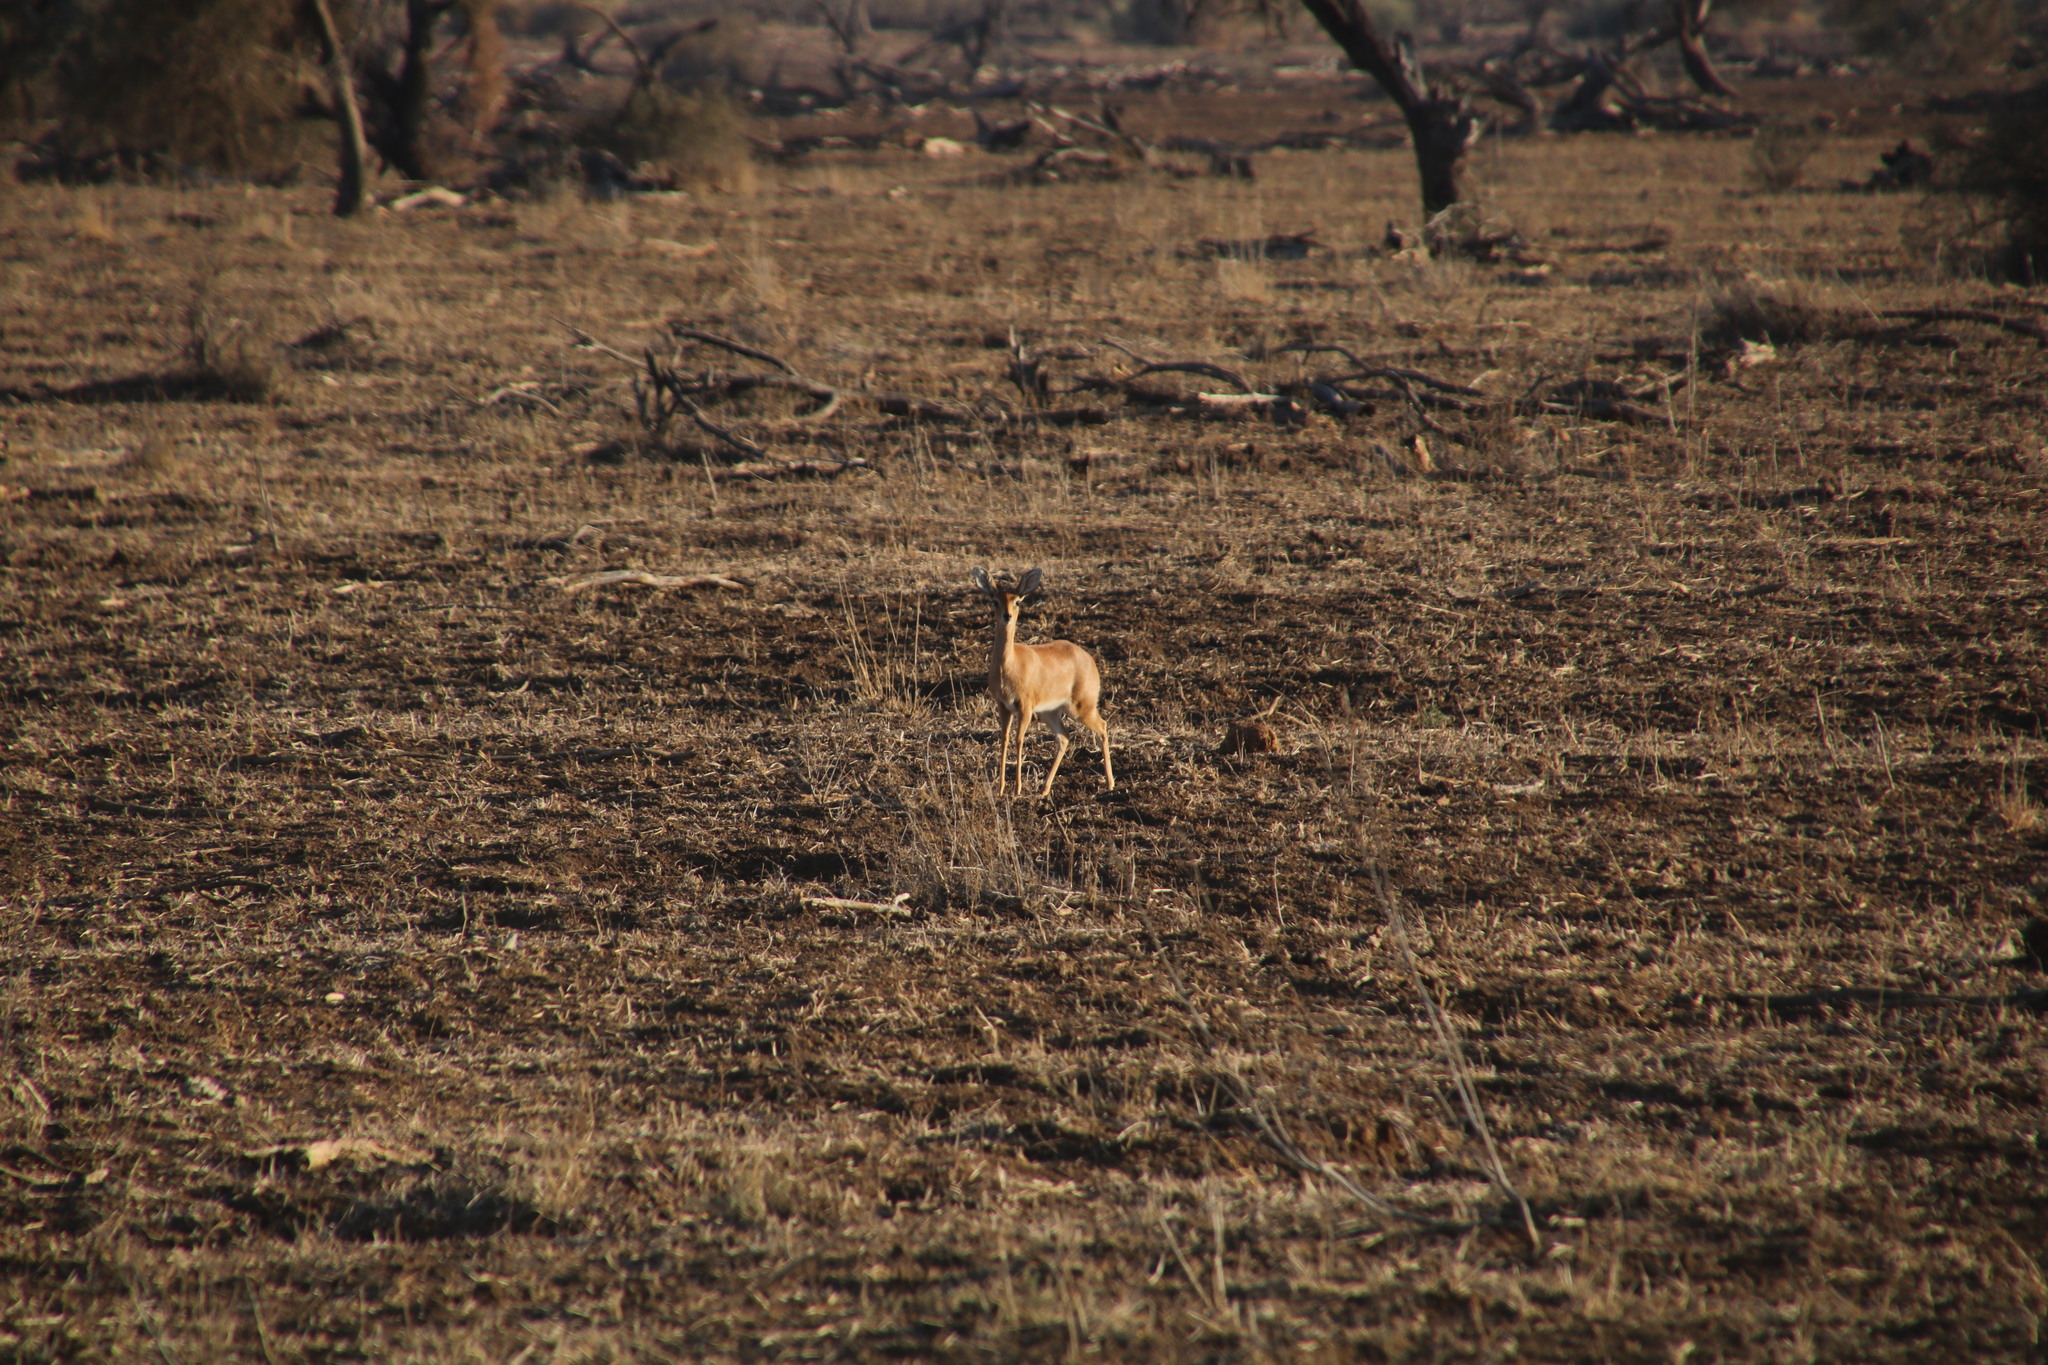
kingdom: Animalia
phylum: Chordata
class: Mammalia
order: Artiodactyla
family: Bovidae
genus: Raphicerus
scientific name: Raphicerus campestris
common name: Steenbok
